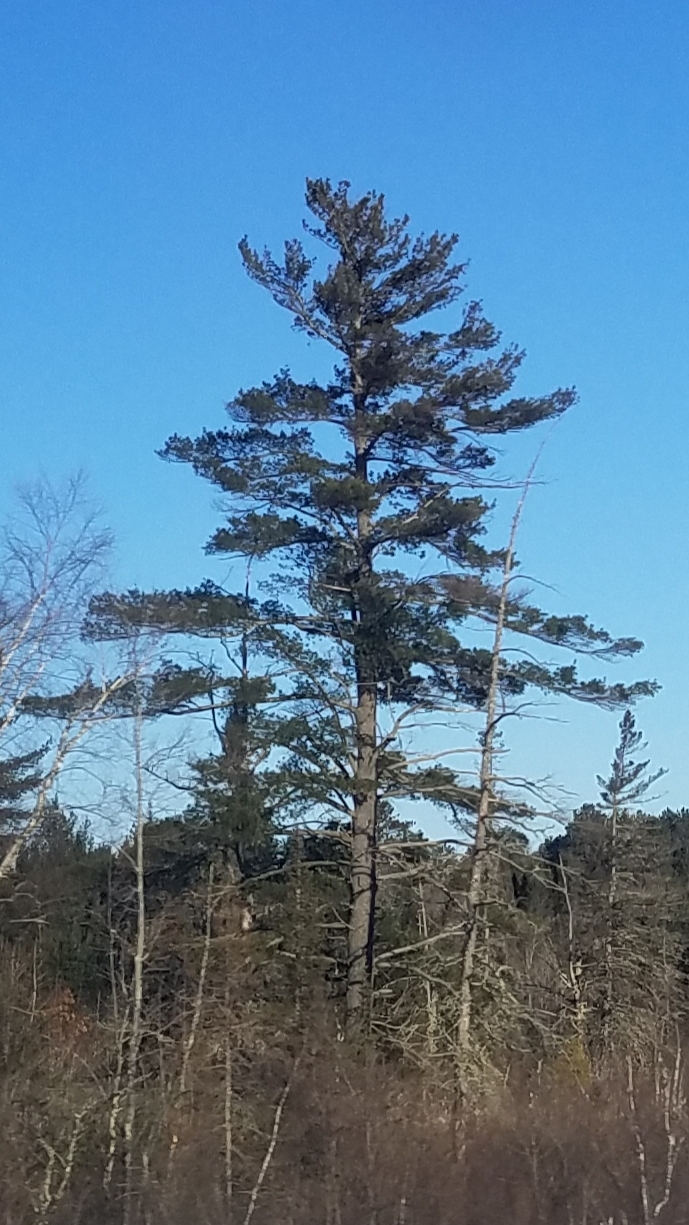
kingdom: Plantae
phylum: Tracheophyta
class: Pinopsida
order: Pinales
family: Pinaceae
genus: Pinus
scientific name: Pinus strobus
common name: Weymouth pine
